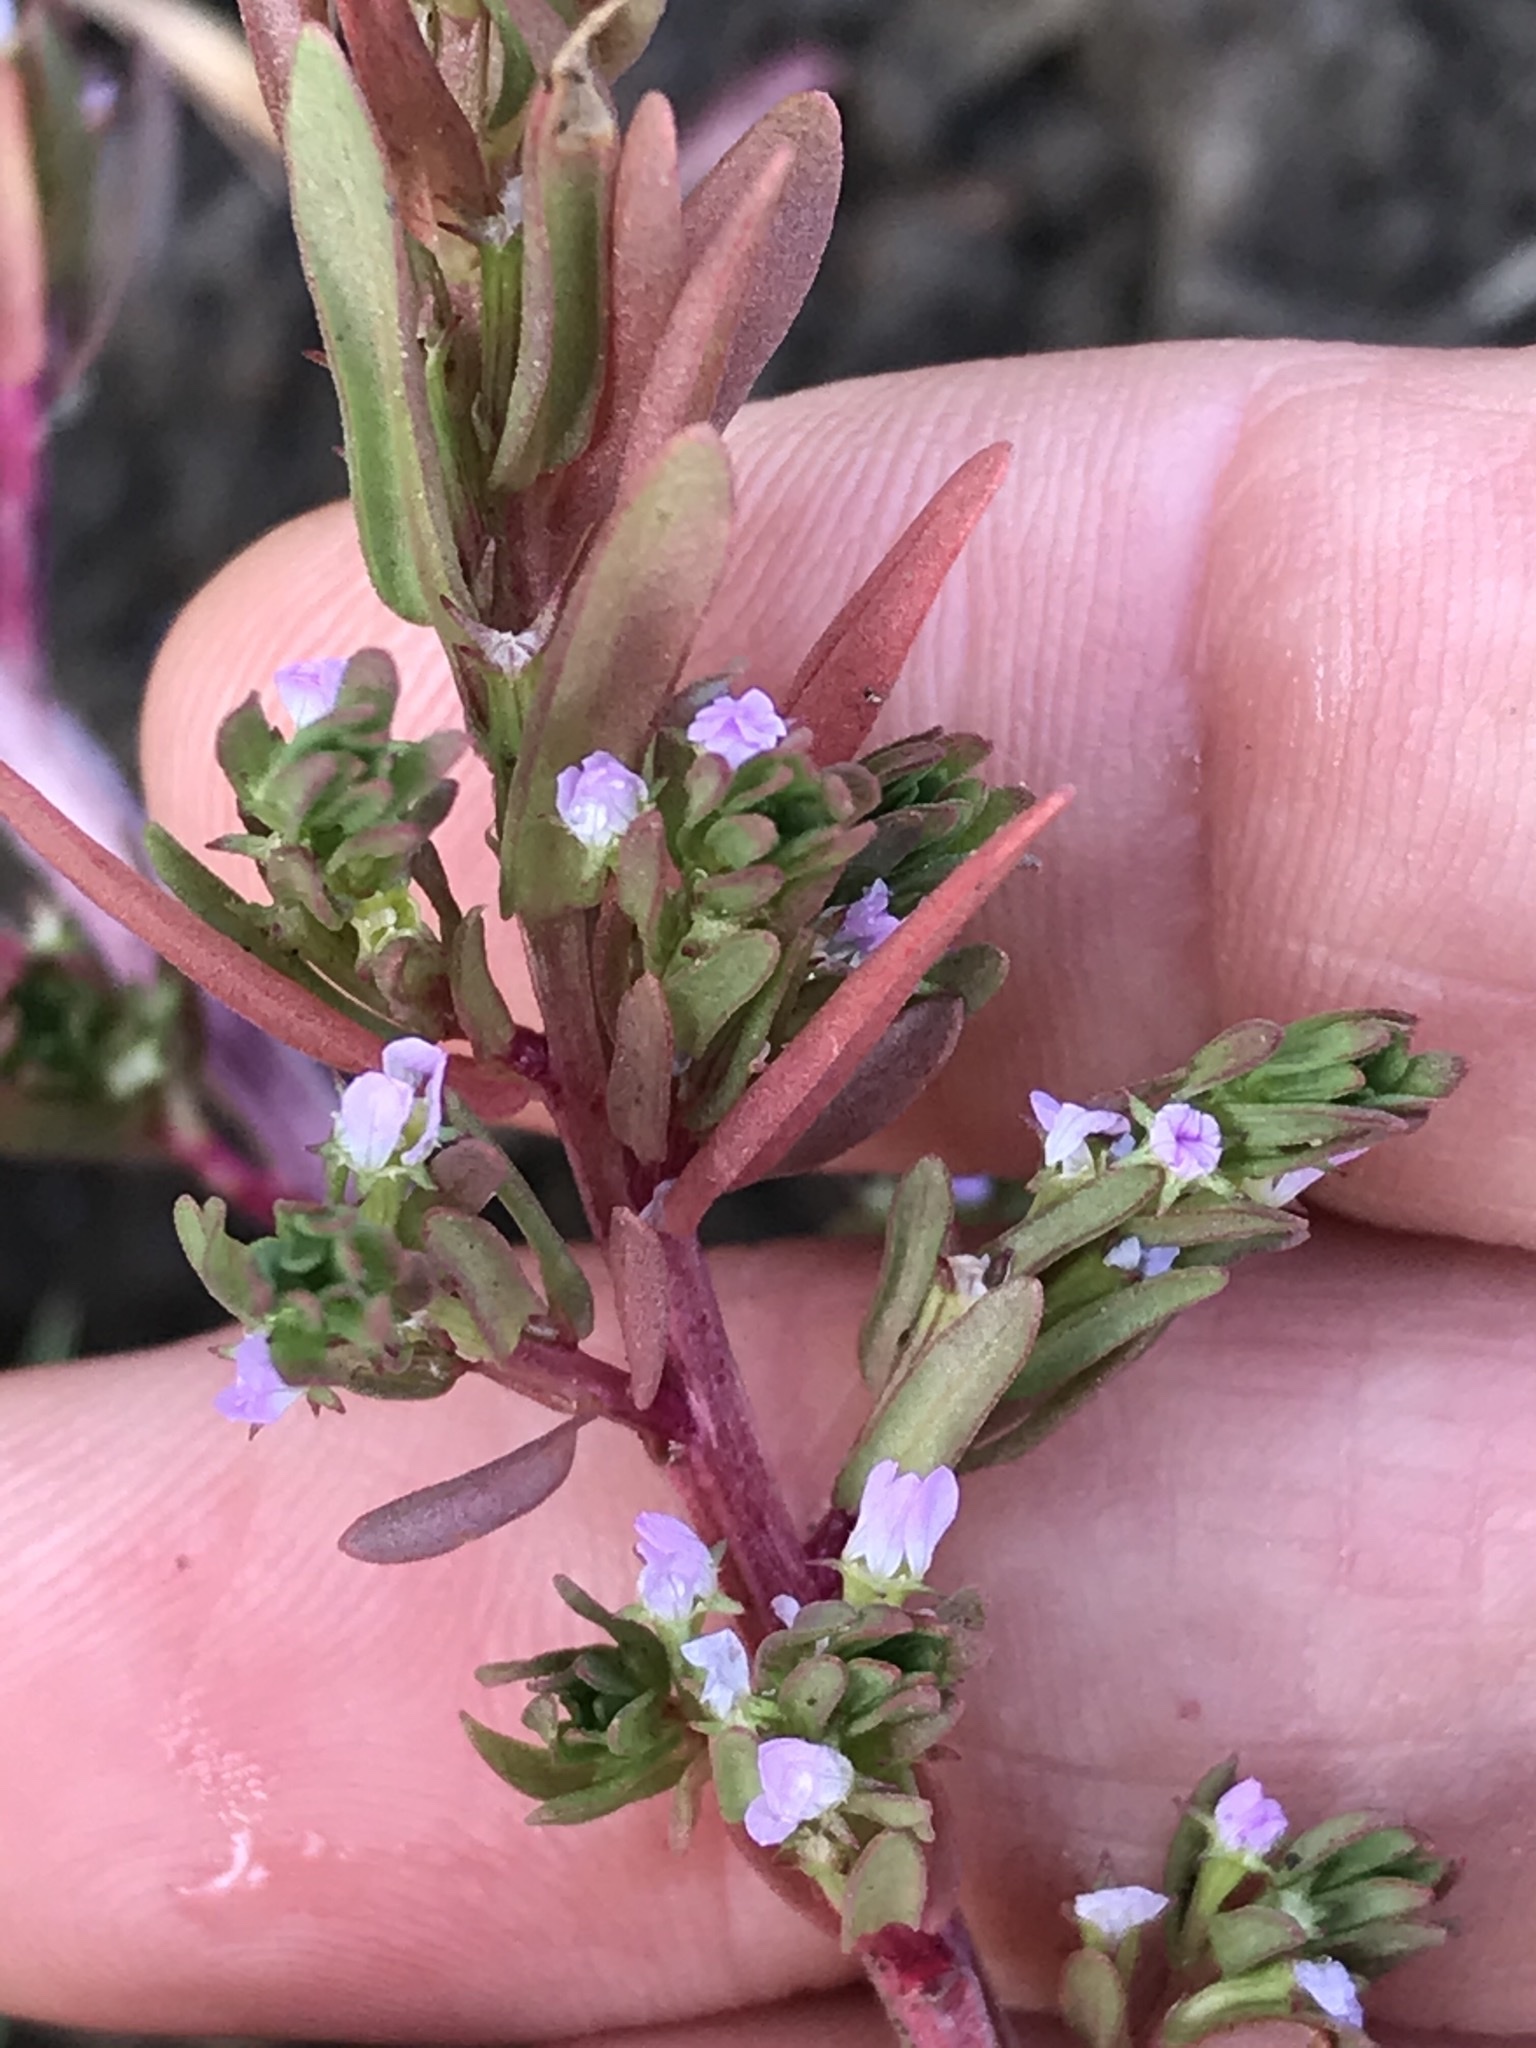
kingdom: Plantae
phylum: Tracheophyta
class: Magnoliopsida
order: Myrtales
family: Lythraceae
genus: Lythrum
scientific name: Lythrum hyssopifolia
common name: Grass-poly
